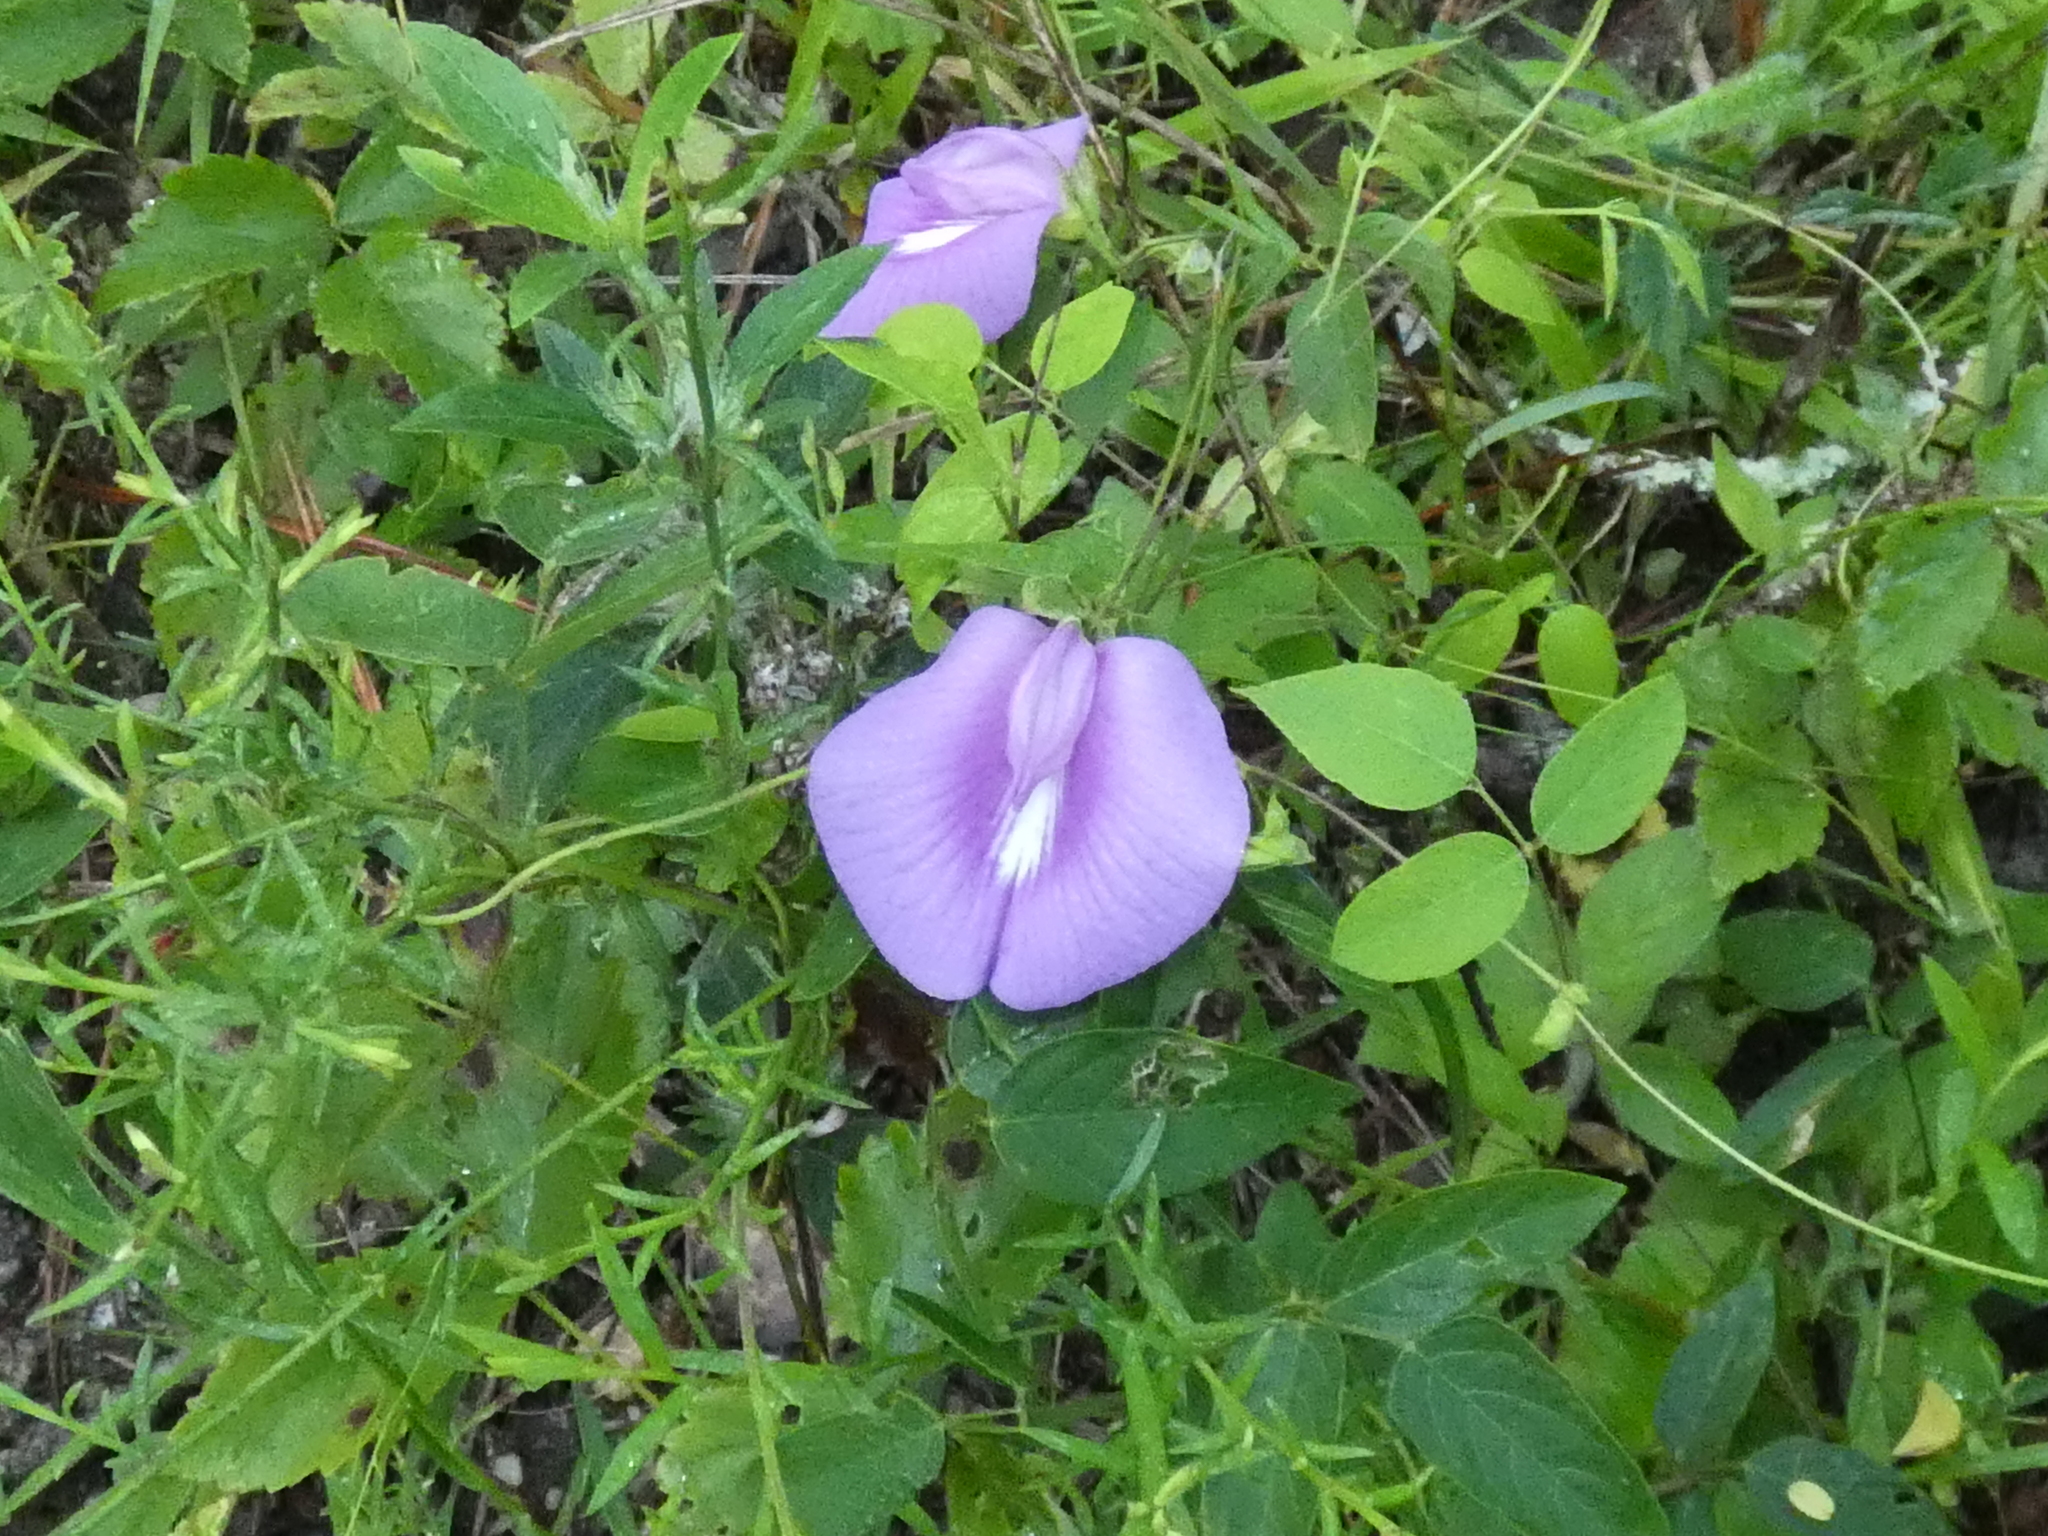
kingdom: Plantae
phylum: Tracheophyta
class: Magnoliopsida
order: Fabales
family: Fabaceae
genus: Centrosema
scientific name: Centrosema virginianum
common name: Butterfly-pea
